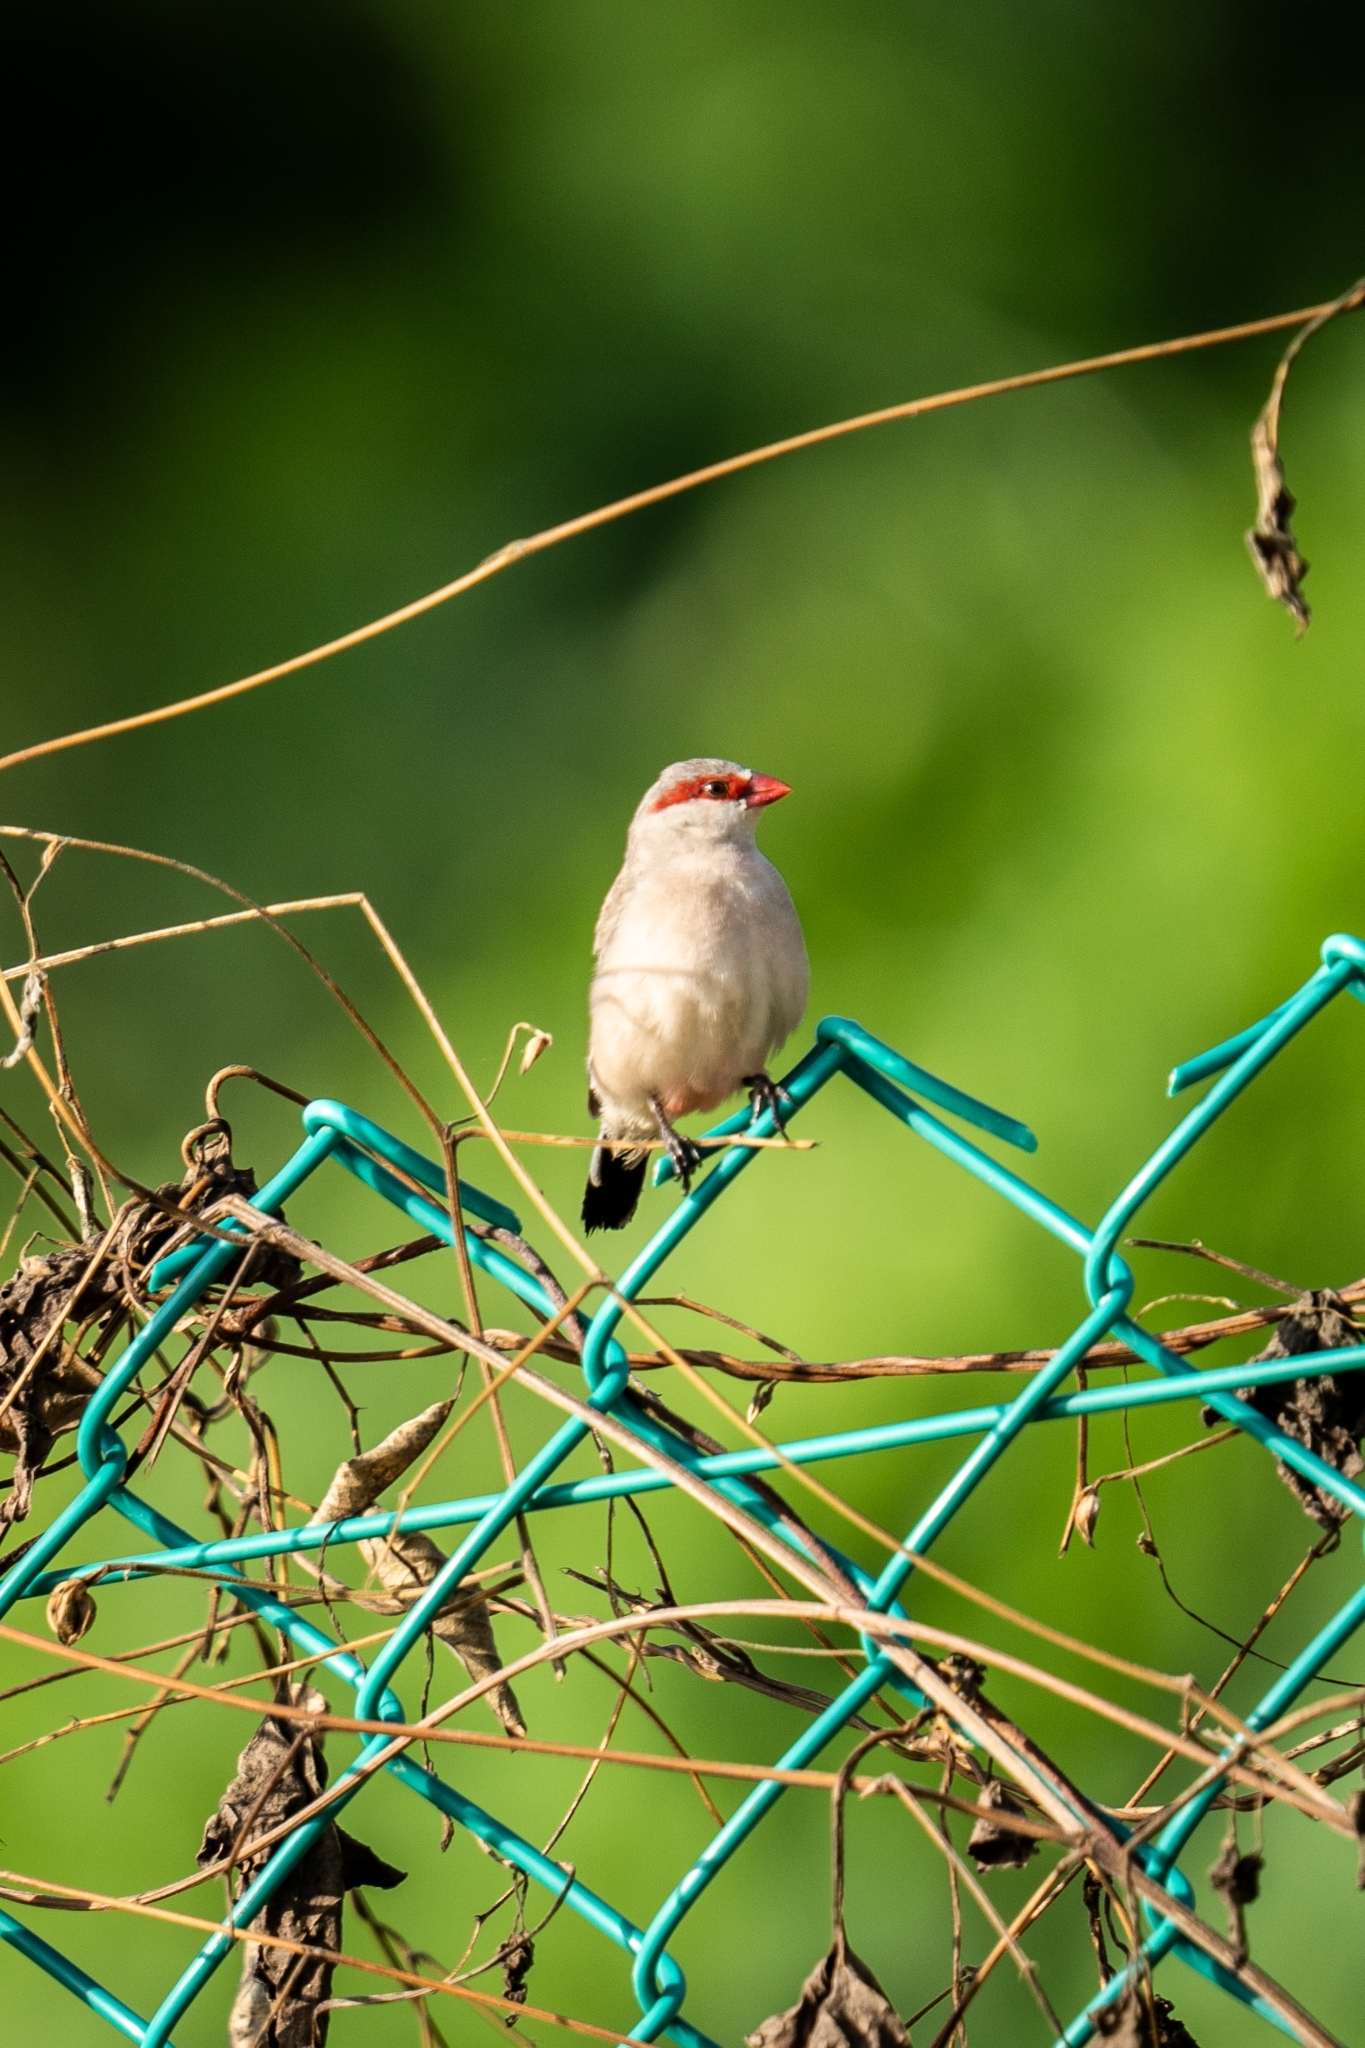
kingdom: Animalia
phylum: Chordata
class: Aves
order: Passeriformes
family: Estrildidae
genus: Estrilda
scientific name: Estrilda troglodytes
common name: Black-rumped waxbill
